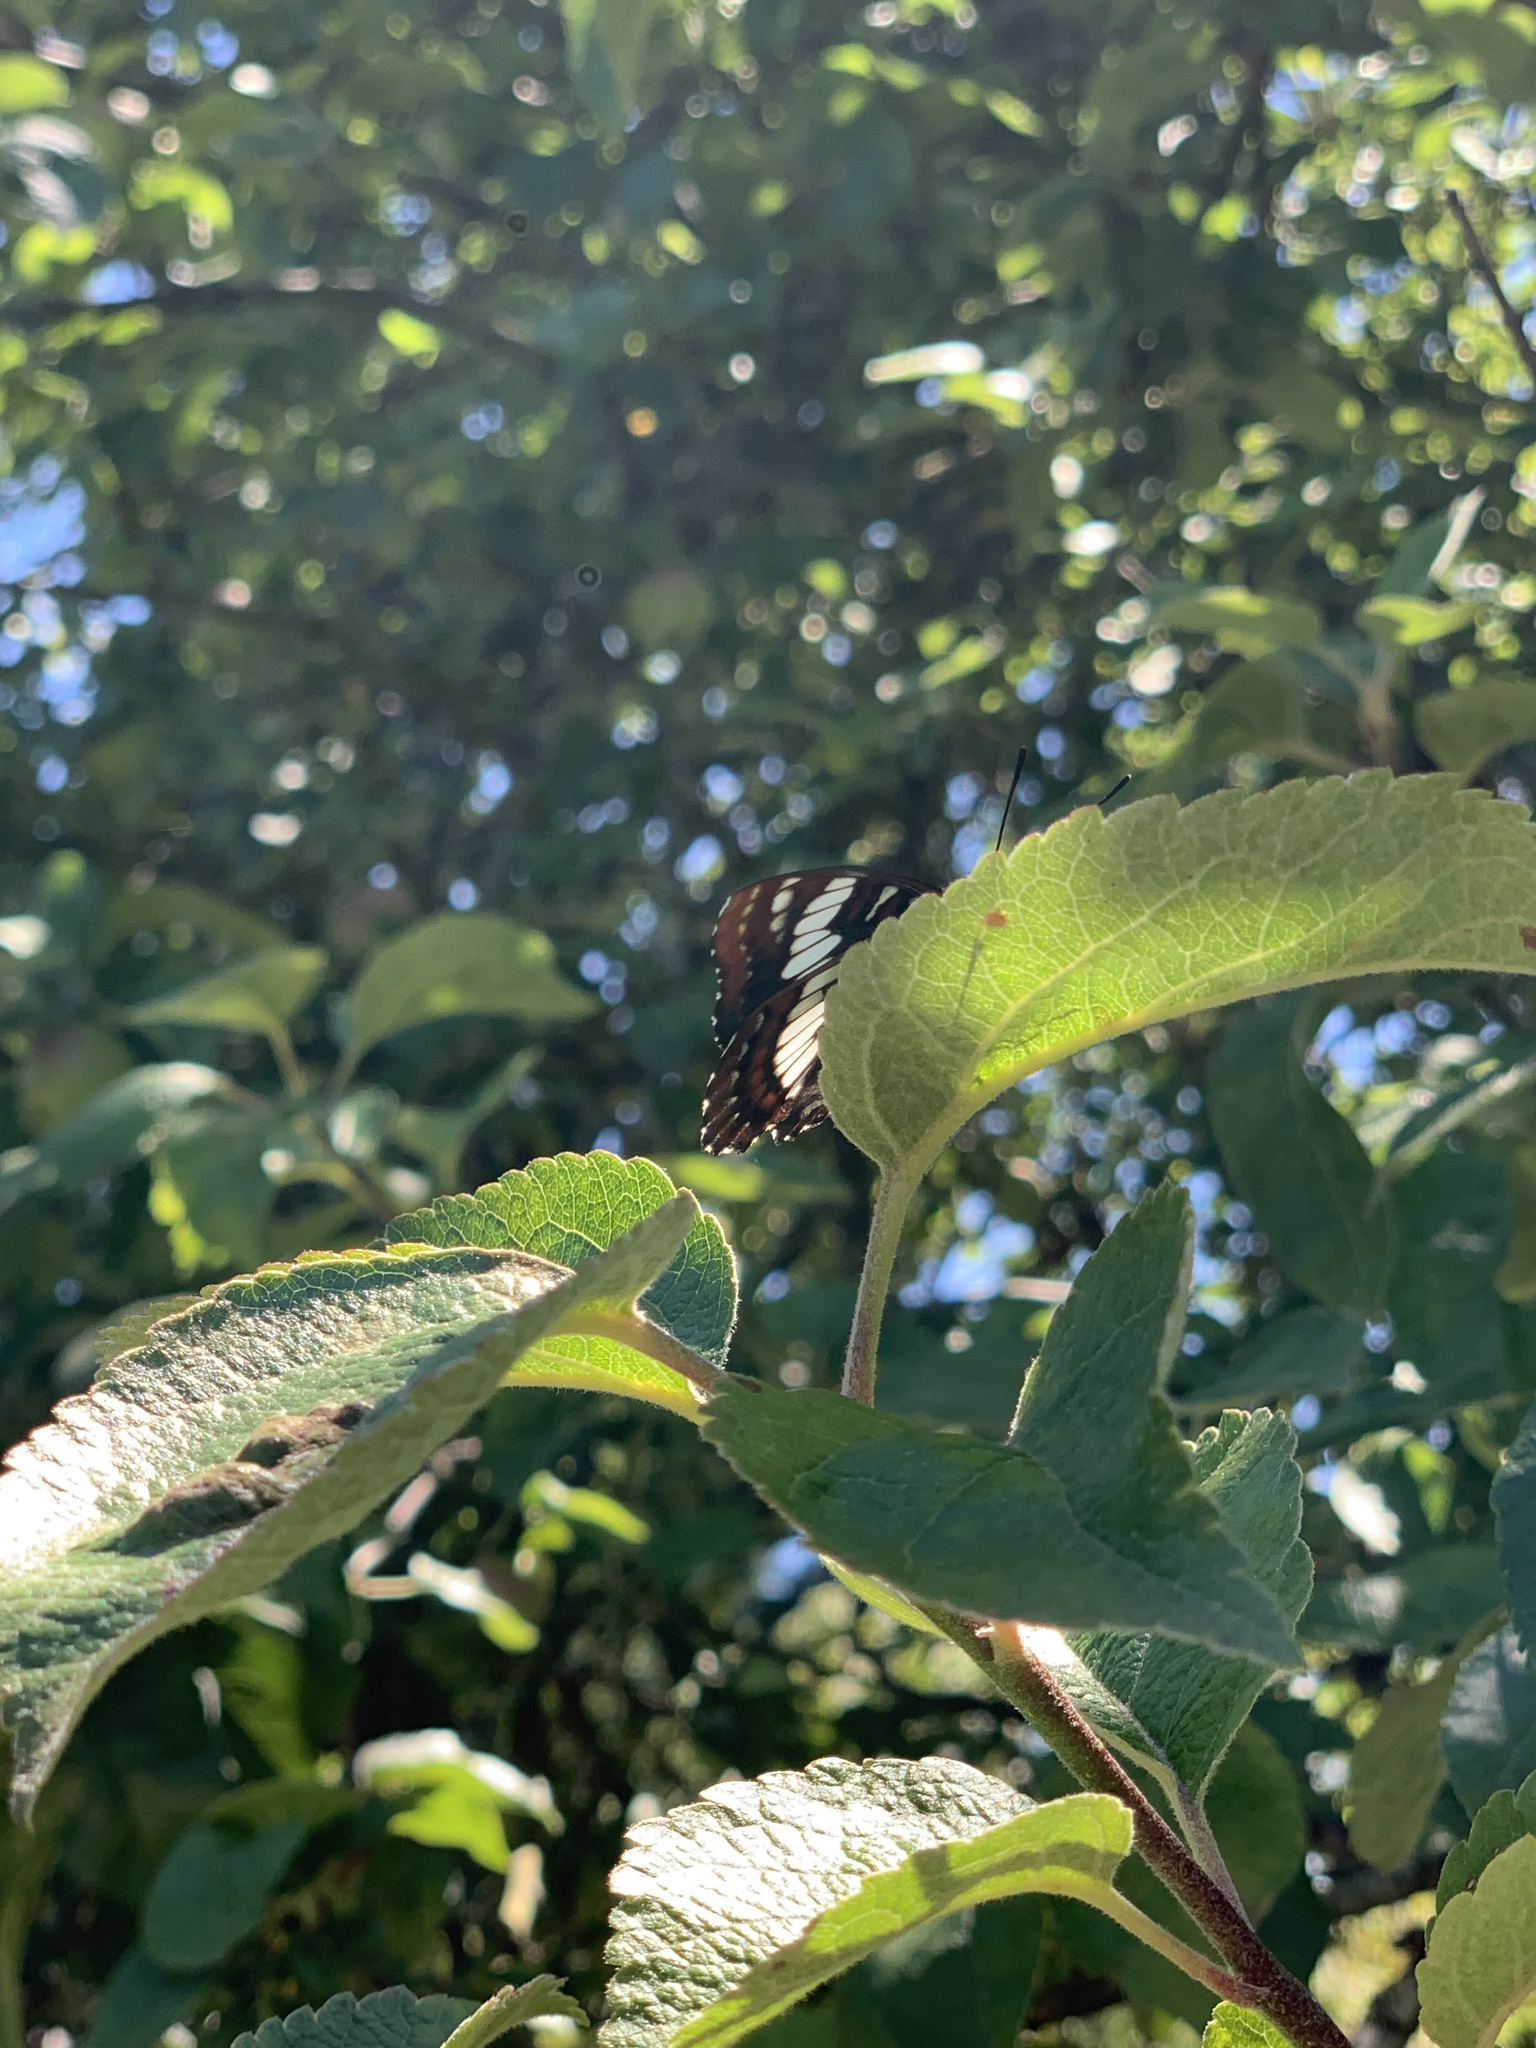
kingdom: Animalia
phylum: Arthropoda
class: Insecta
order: Lepidoptera
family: Nymphalidae
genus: Limenitis
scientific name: Limenitis lorquini
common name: Lorquin's admiral
